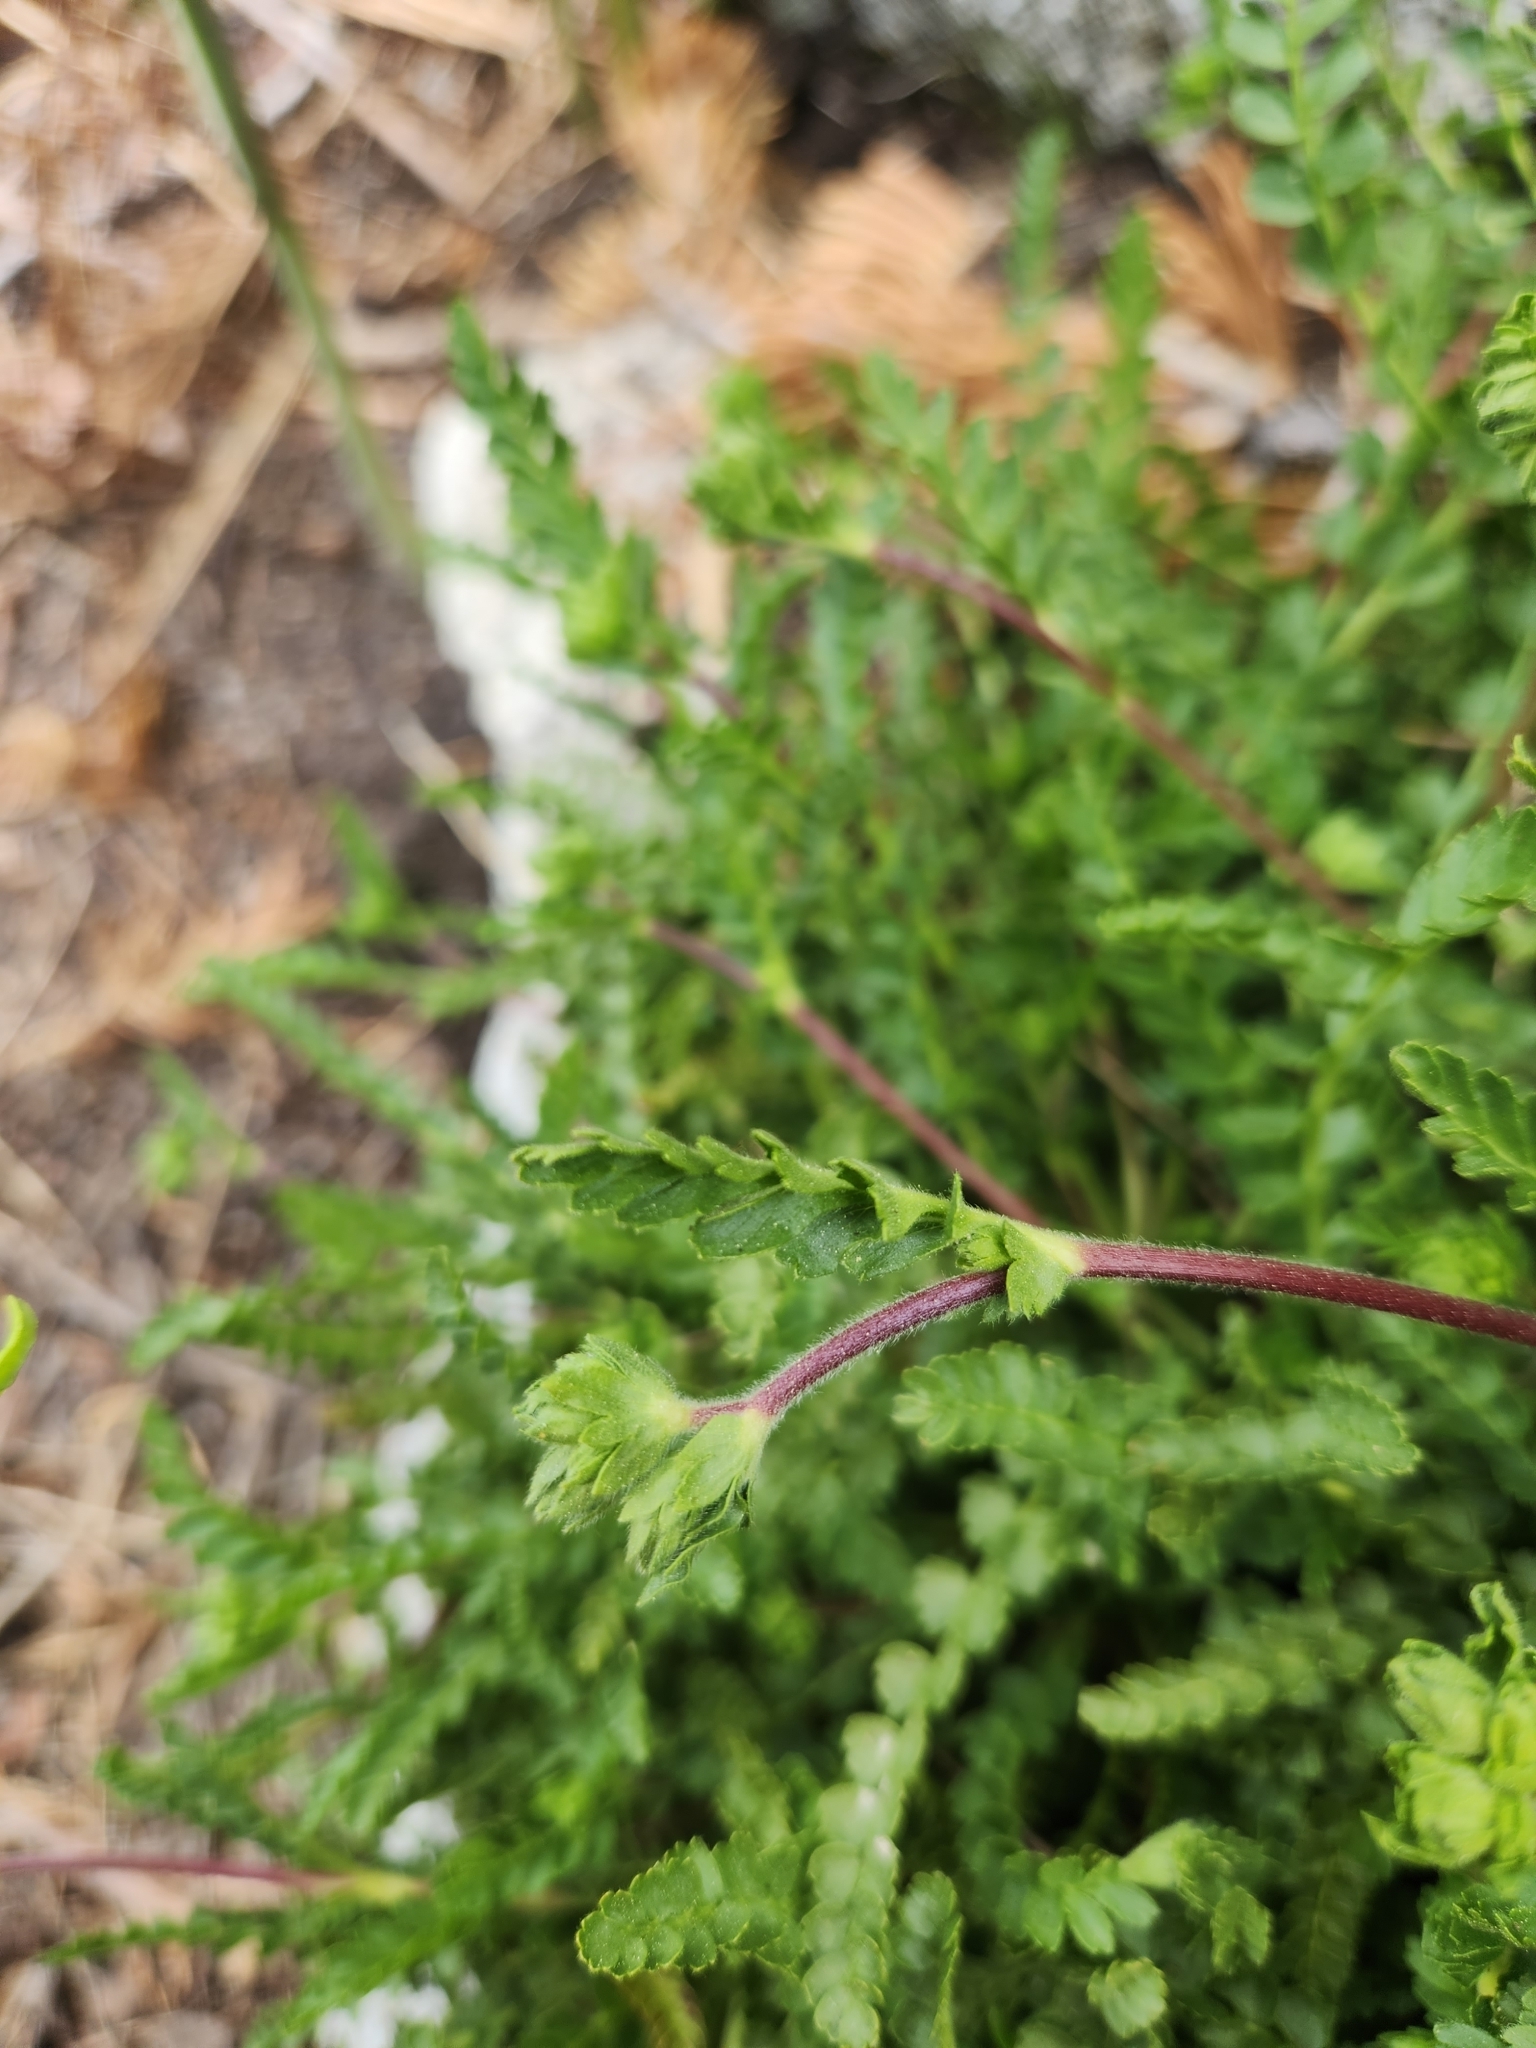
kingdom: Plantae
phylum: Tracheophyta
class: Magnoliopsida
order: Rosales
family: Rosaceae
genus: Potentilla
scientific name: Potentilla clevelandii
